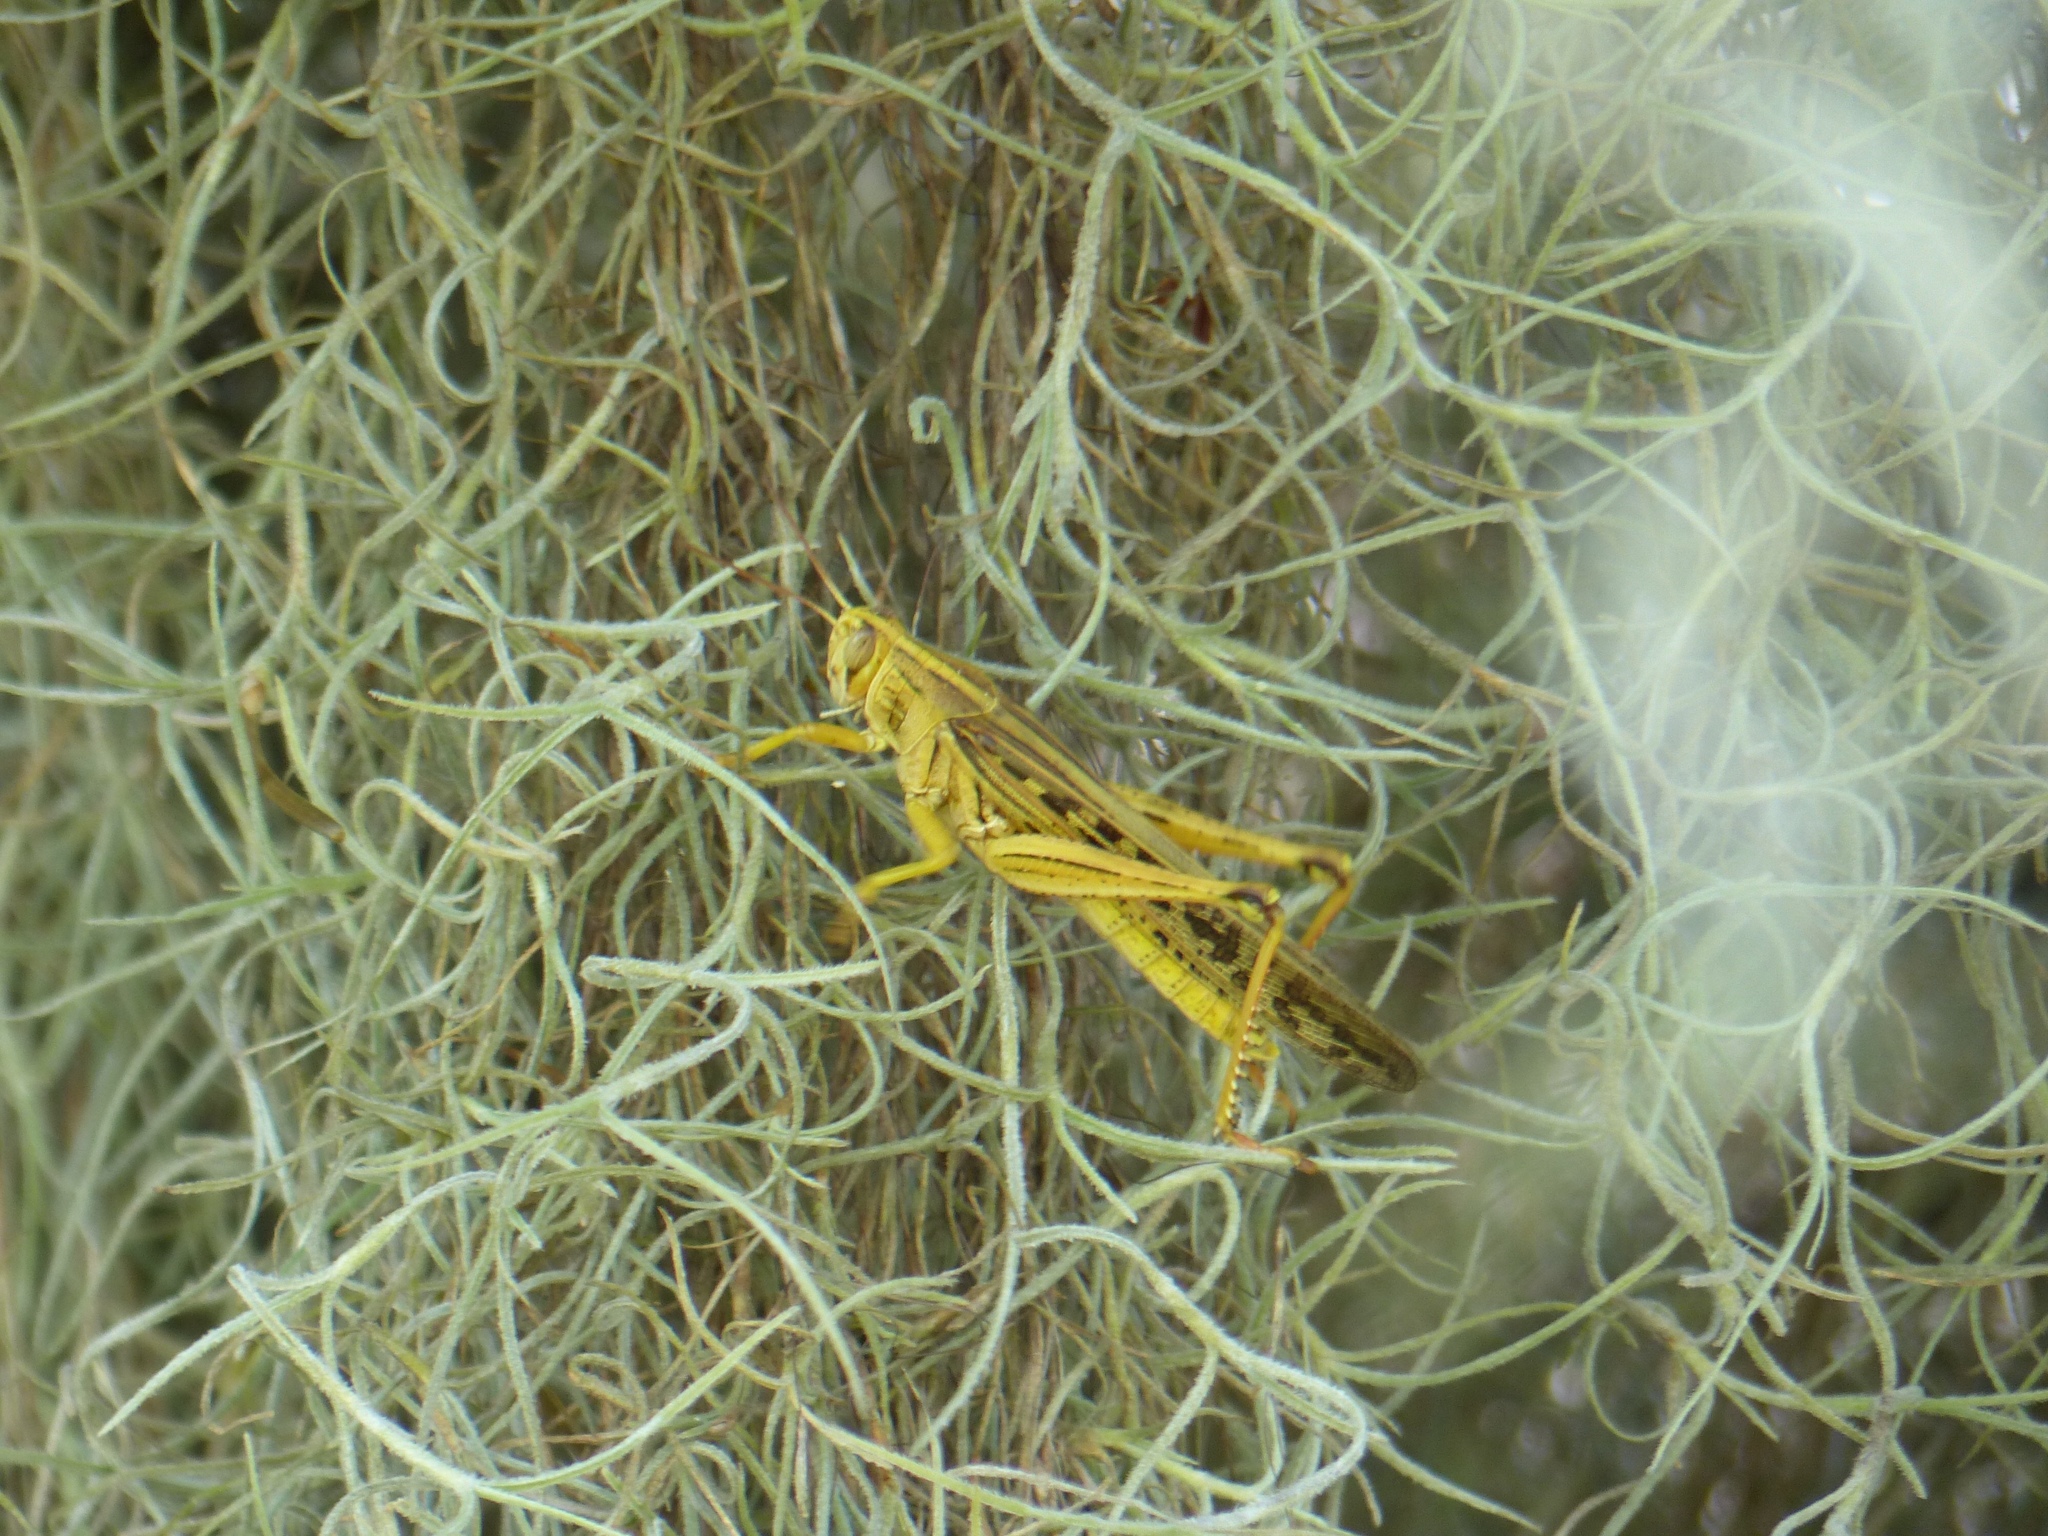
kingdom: Animalia
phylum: Arthropoda
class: Insecta
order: Orthoptera
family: Acrididae
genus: Schistocerca
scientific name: Schistocerca americana
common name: American bird locust
